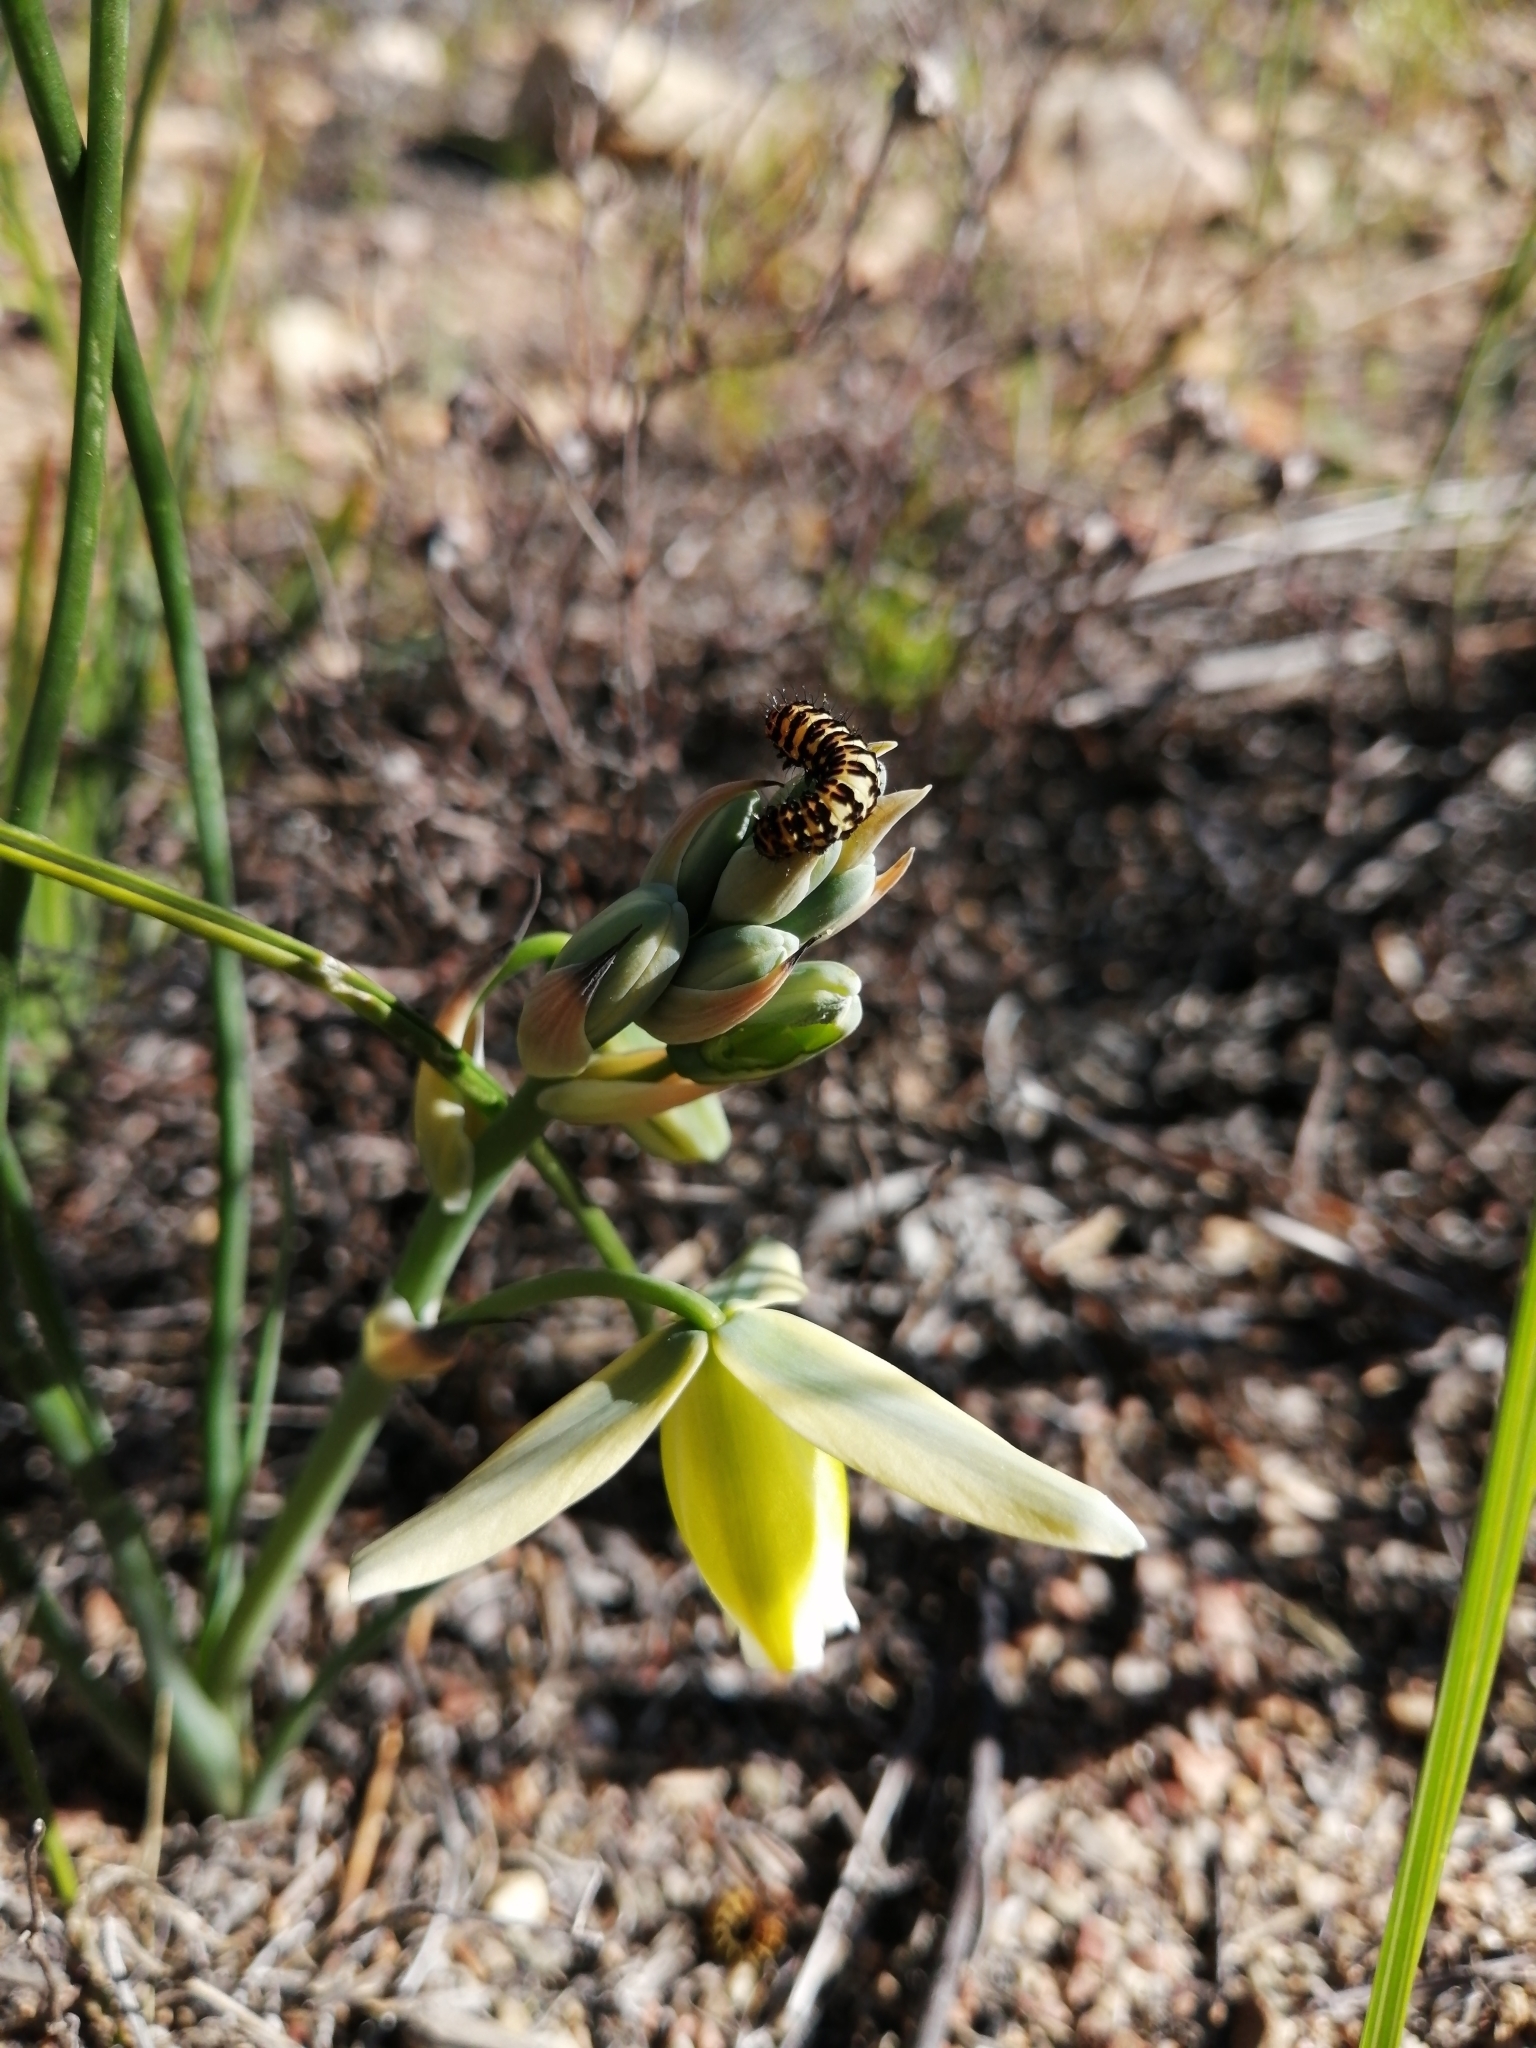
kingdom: Animalia
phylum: Arthropoda
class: Insecta
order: Lepidoptera
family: Noctuidae
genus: Diaphone
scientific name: Diaphone eumela
